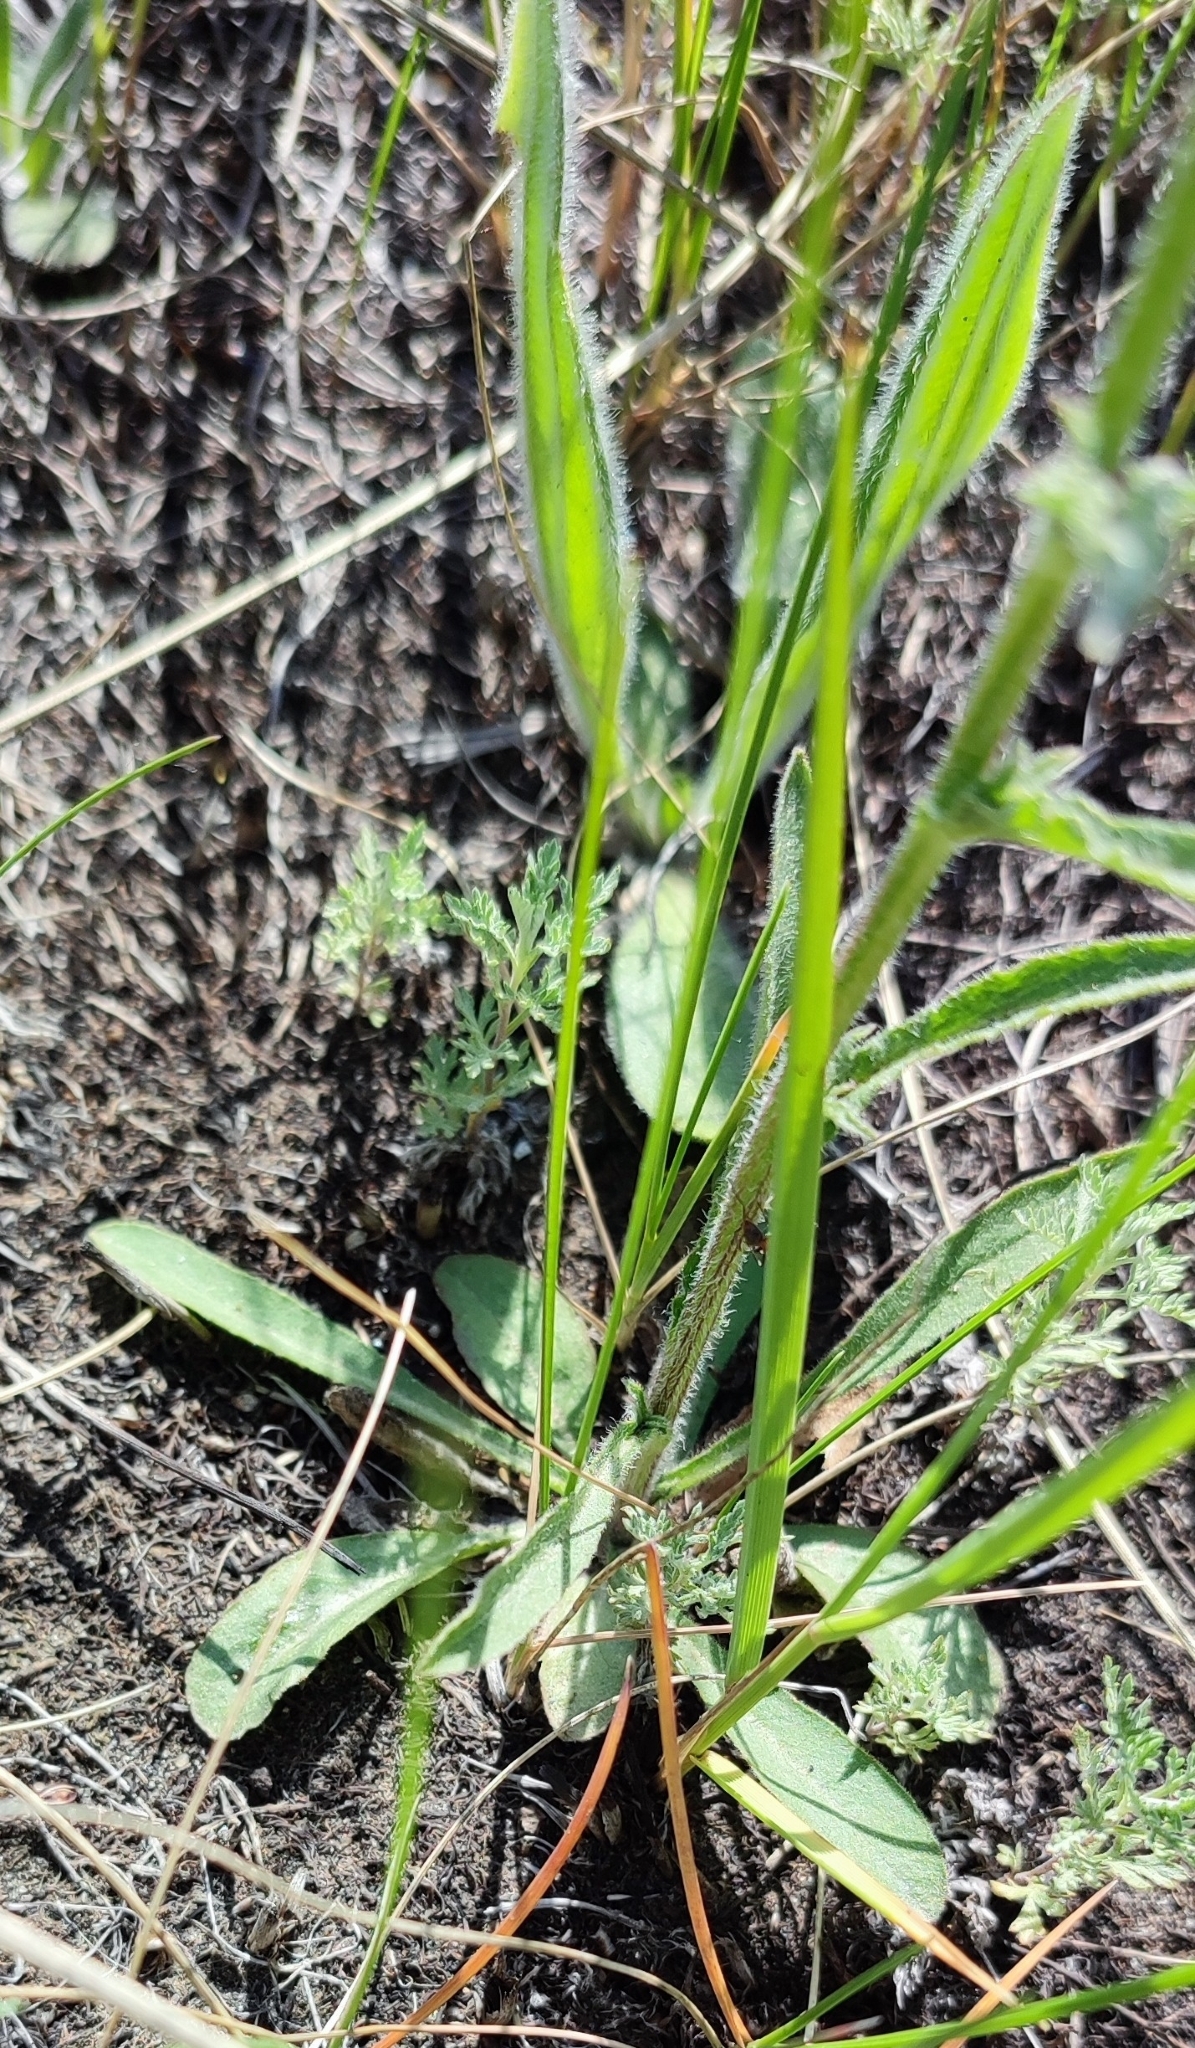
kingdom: Plantae
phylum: Tracheophyta
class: Magnoliopsida
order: Asterales
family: Campanulaceae
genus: Campanula
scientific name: Campanula sibirica
